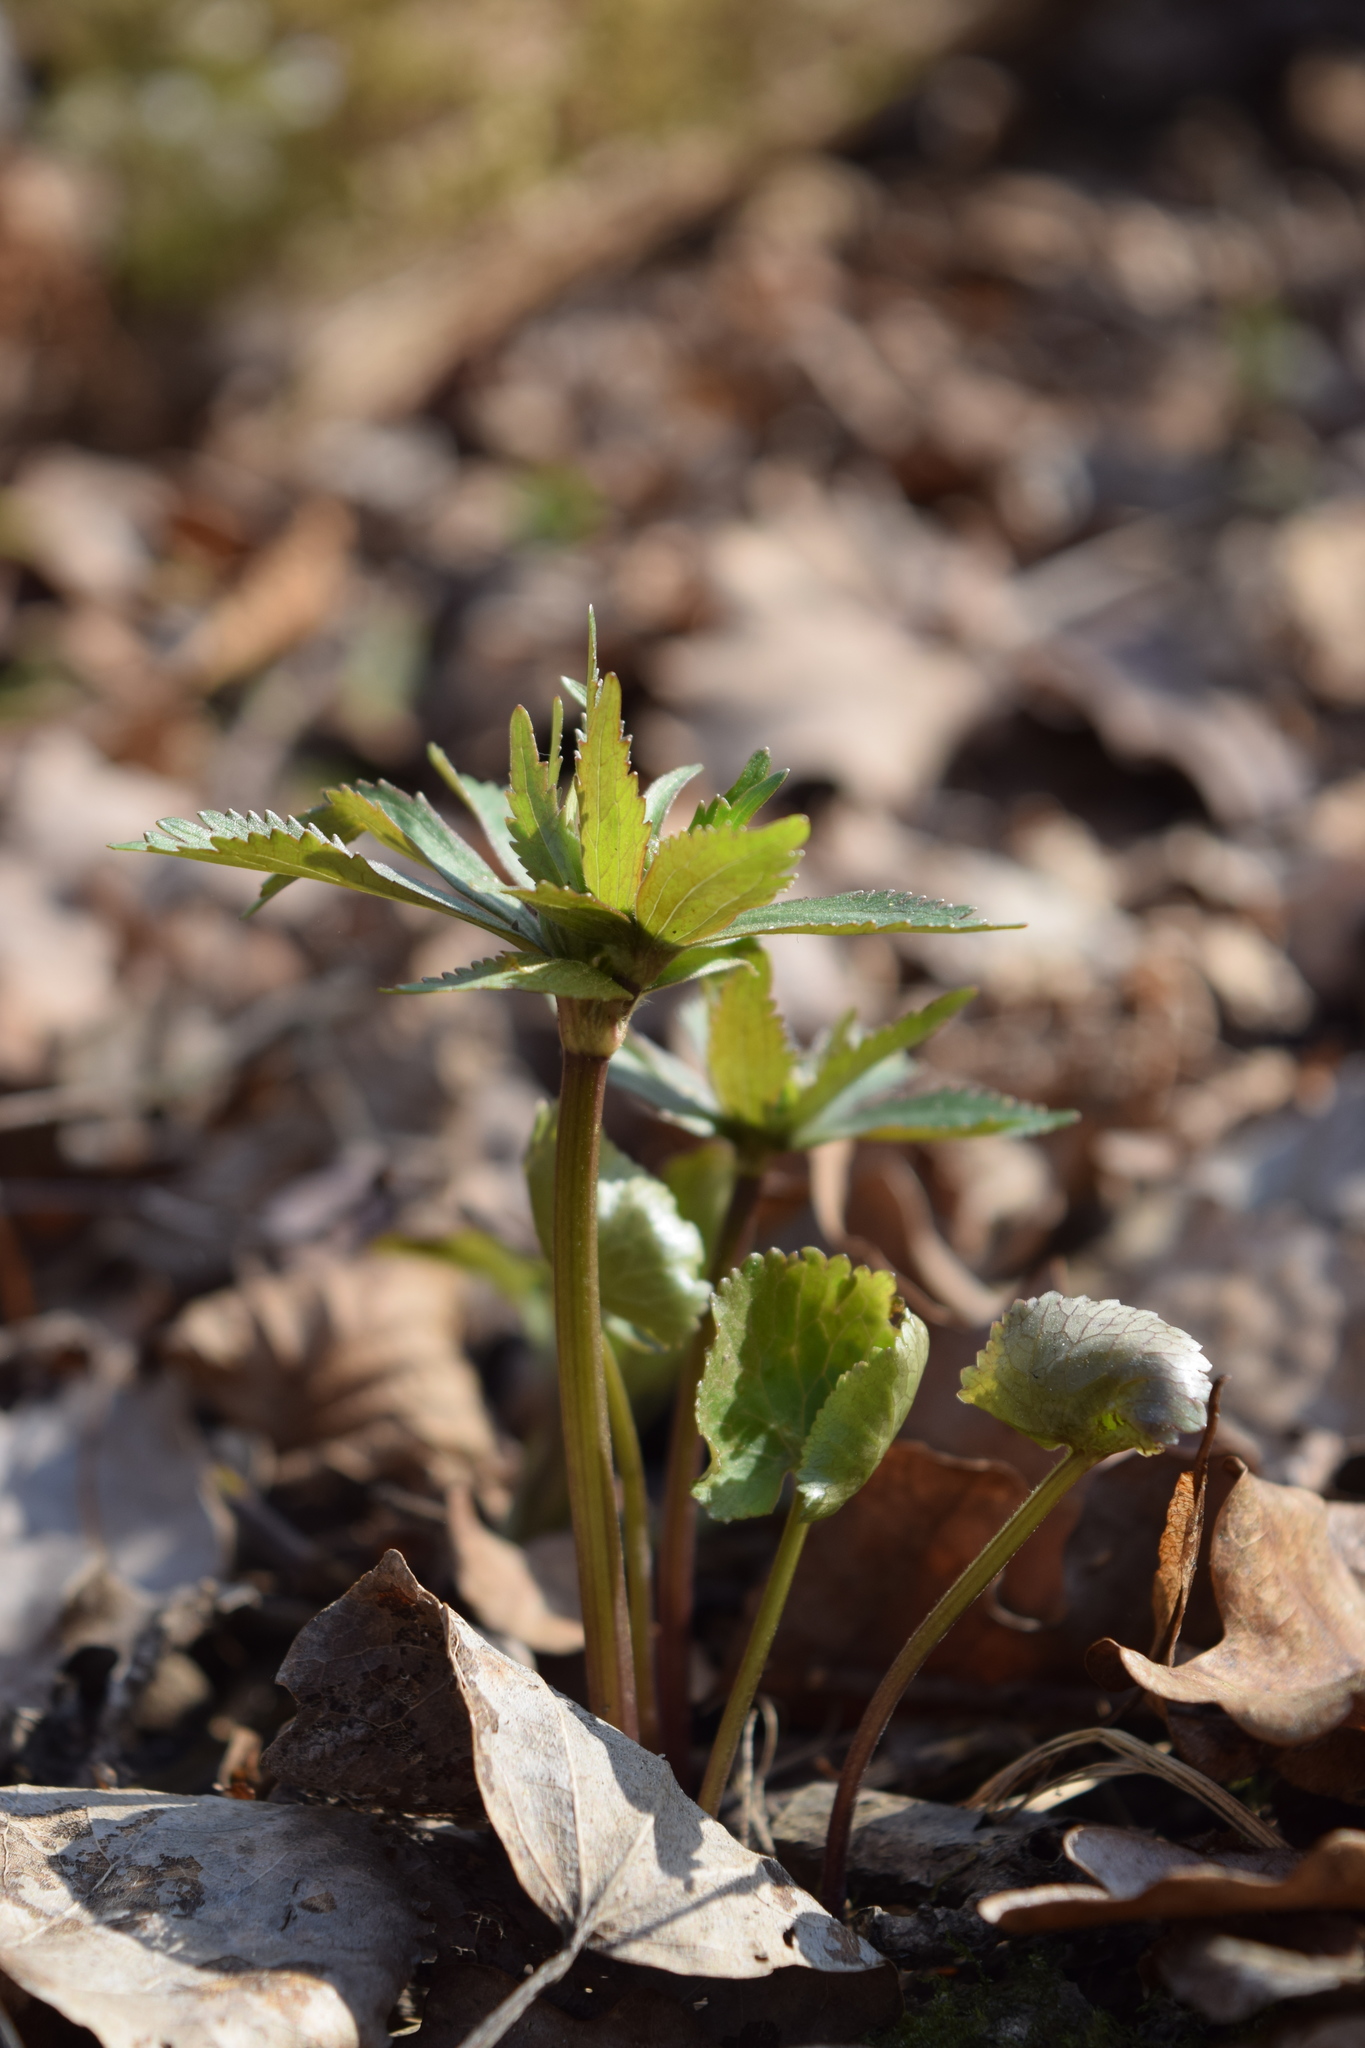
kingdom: Plantae
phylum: Tracheophyta
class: Magnoliopsida
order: Ranunculales
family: Ranunculaceae
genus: Ranunculus
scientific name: Ranunculus cassubicus
